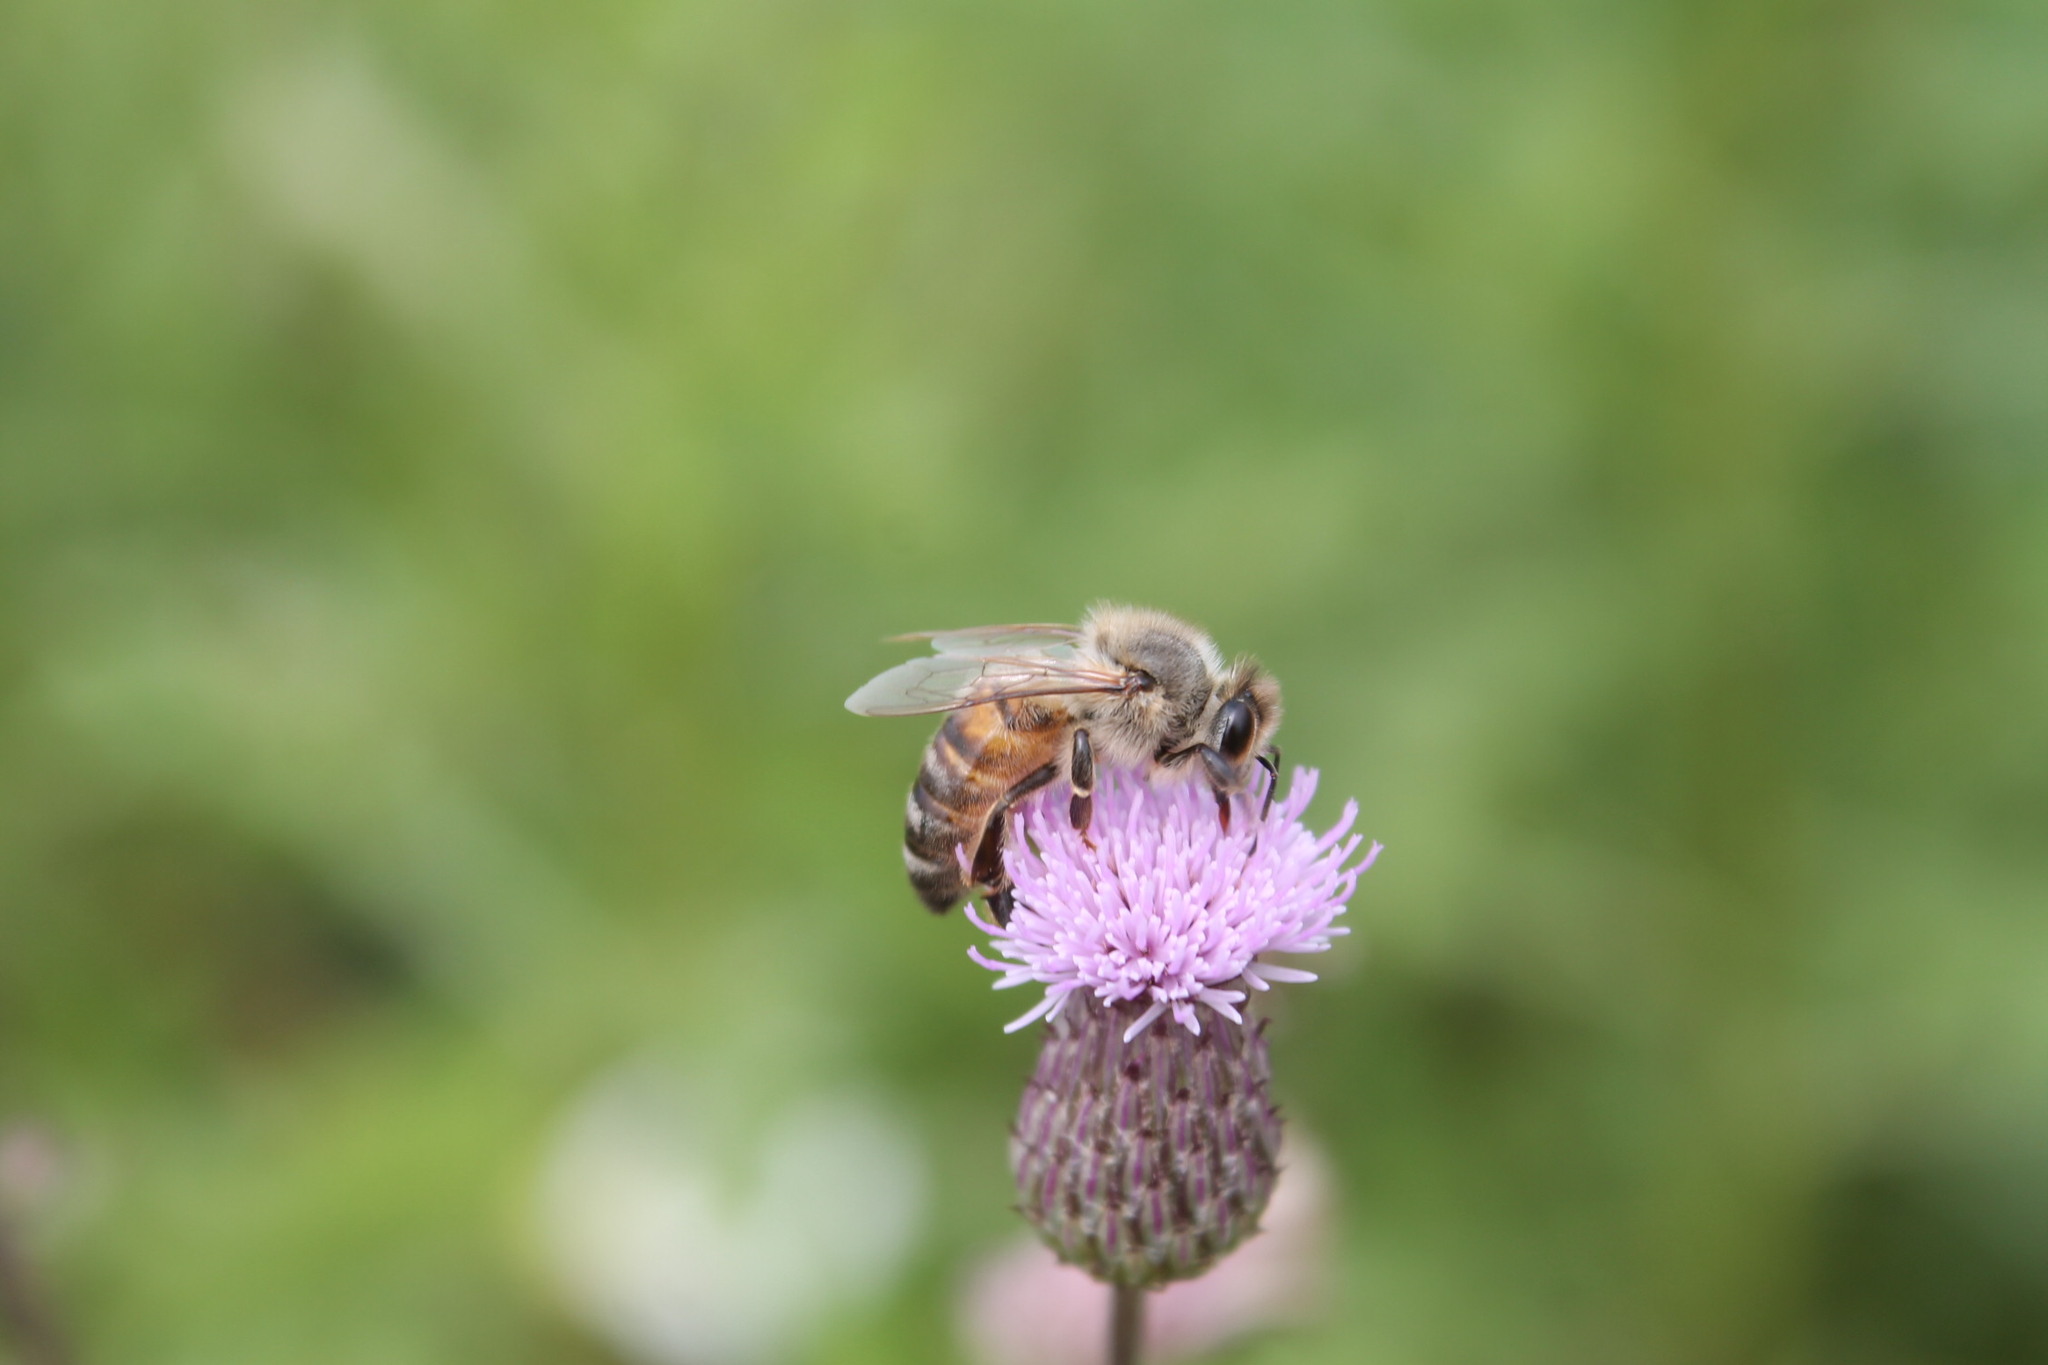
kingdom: Plantae
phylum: Tracheophyta
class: Magnoliopsida
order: Asterales
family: Asteraceae
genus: Cirsium
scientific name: Cirsium arvense
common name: Creeping thistle
